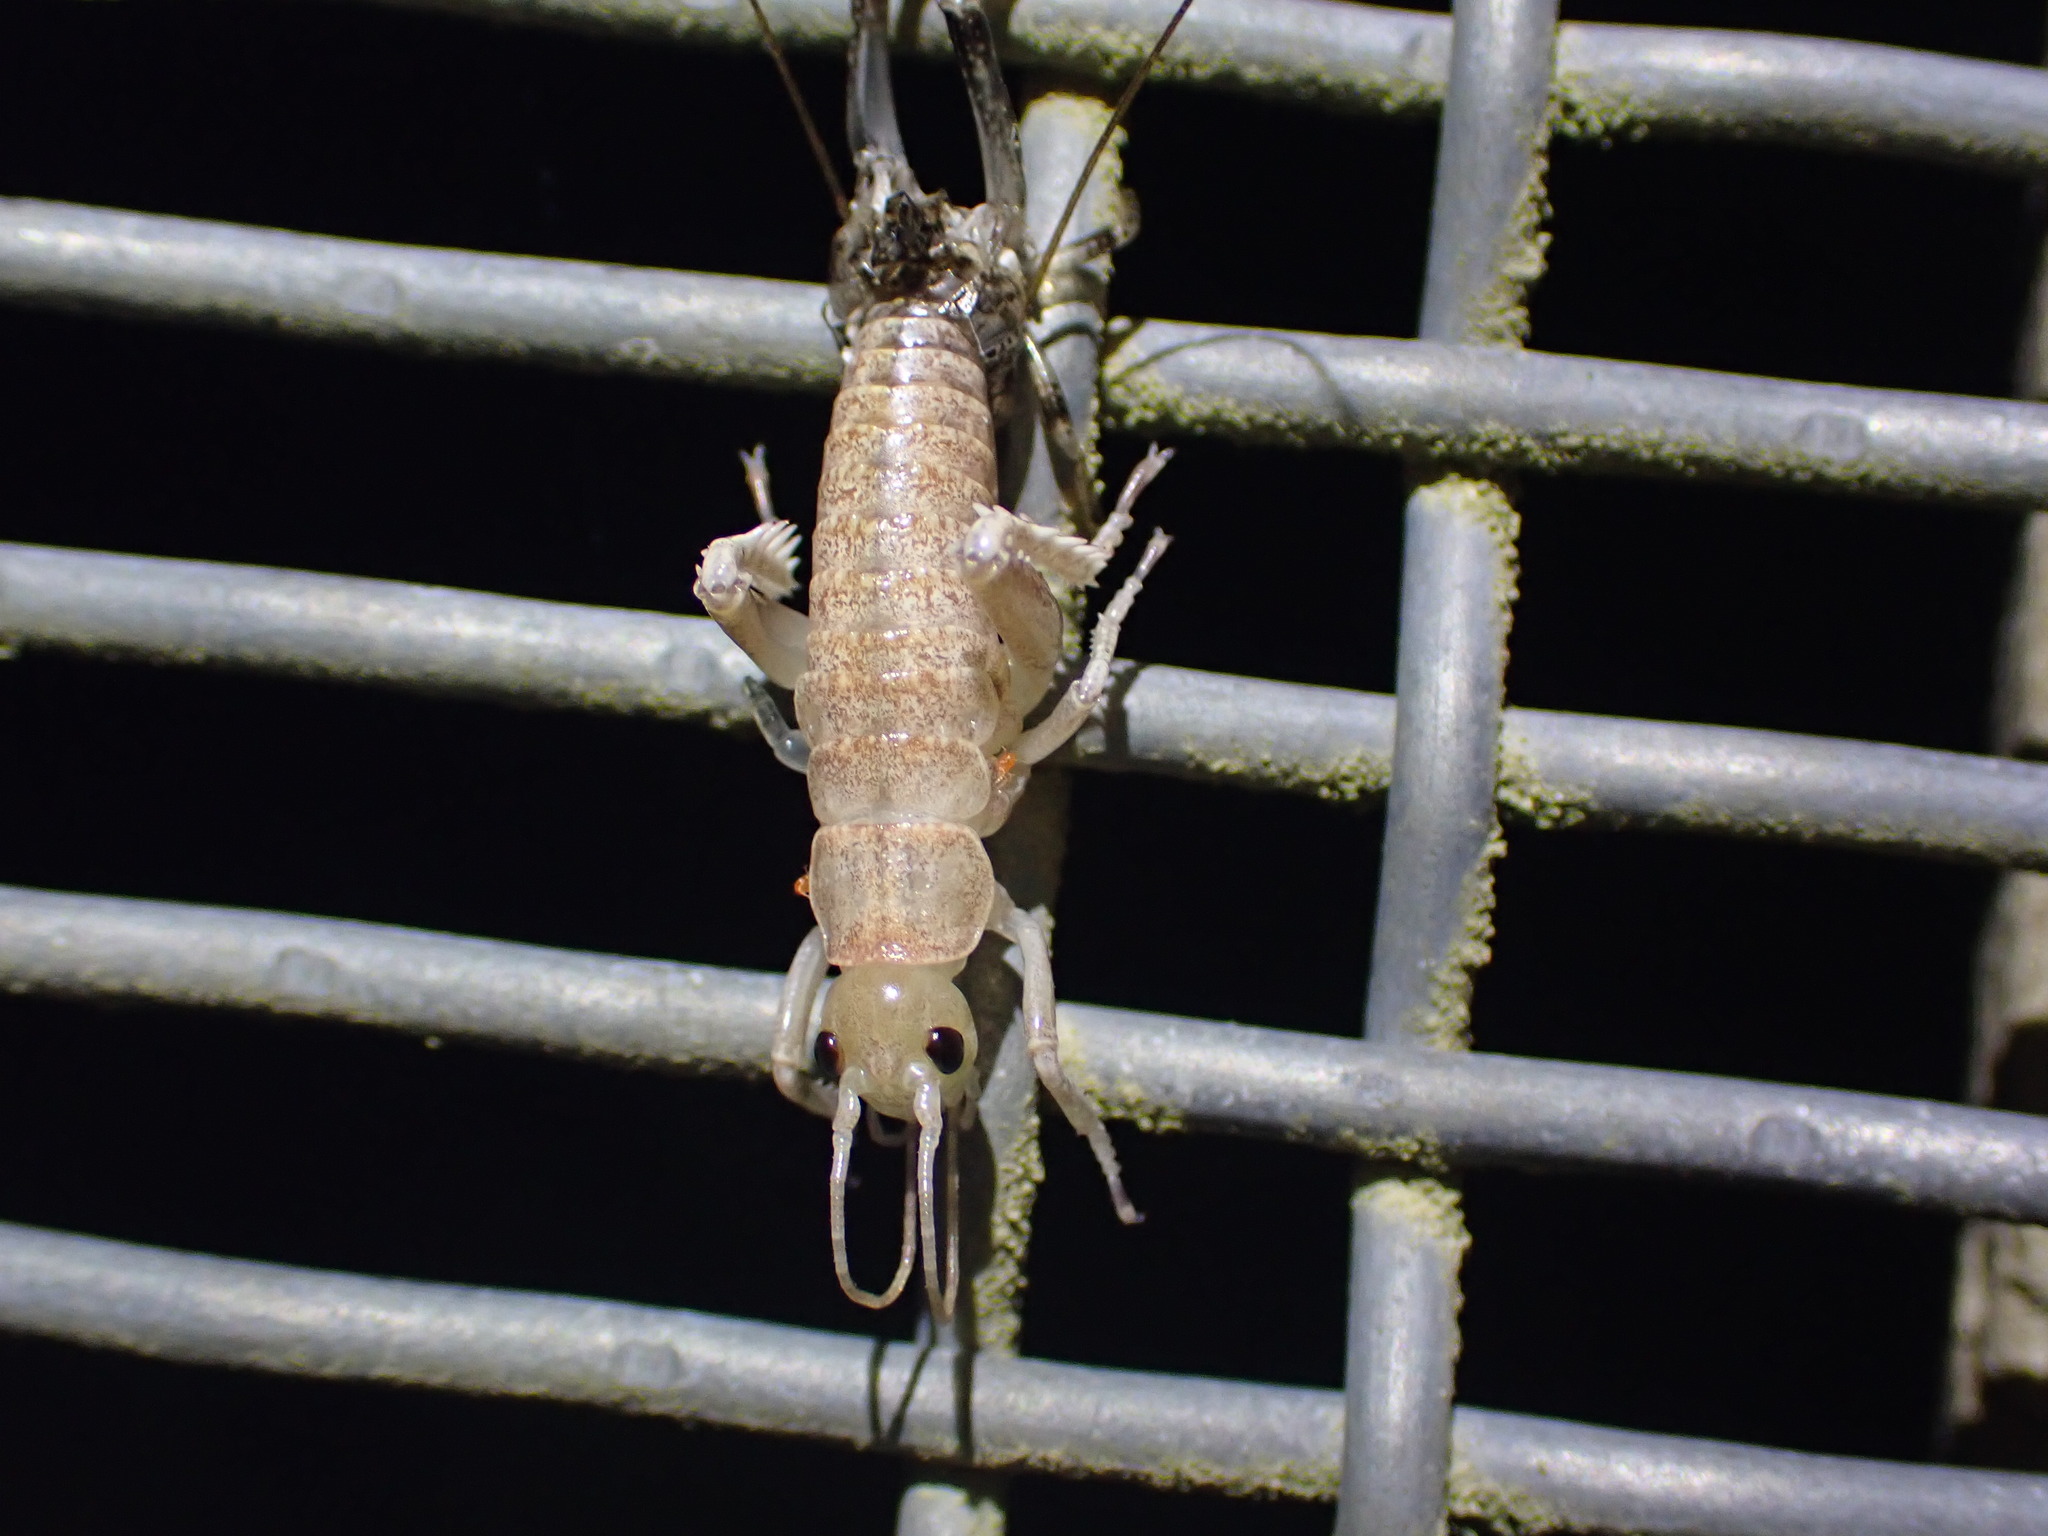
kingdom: Animalia
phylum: Arthropoda
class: Insecta
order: Orthoptera
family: Anostostomatidae
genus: Deinacrida
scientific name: Deinacrida rugosa
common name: Stephens island weta
